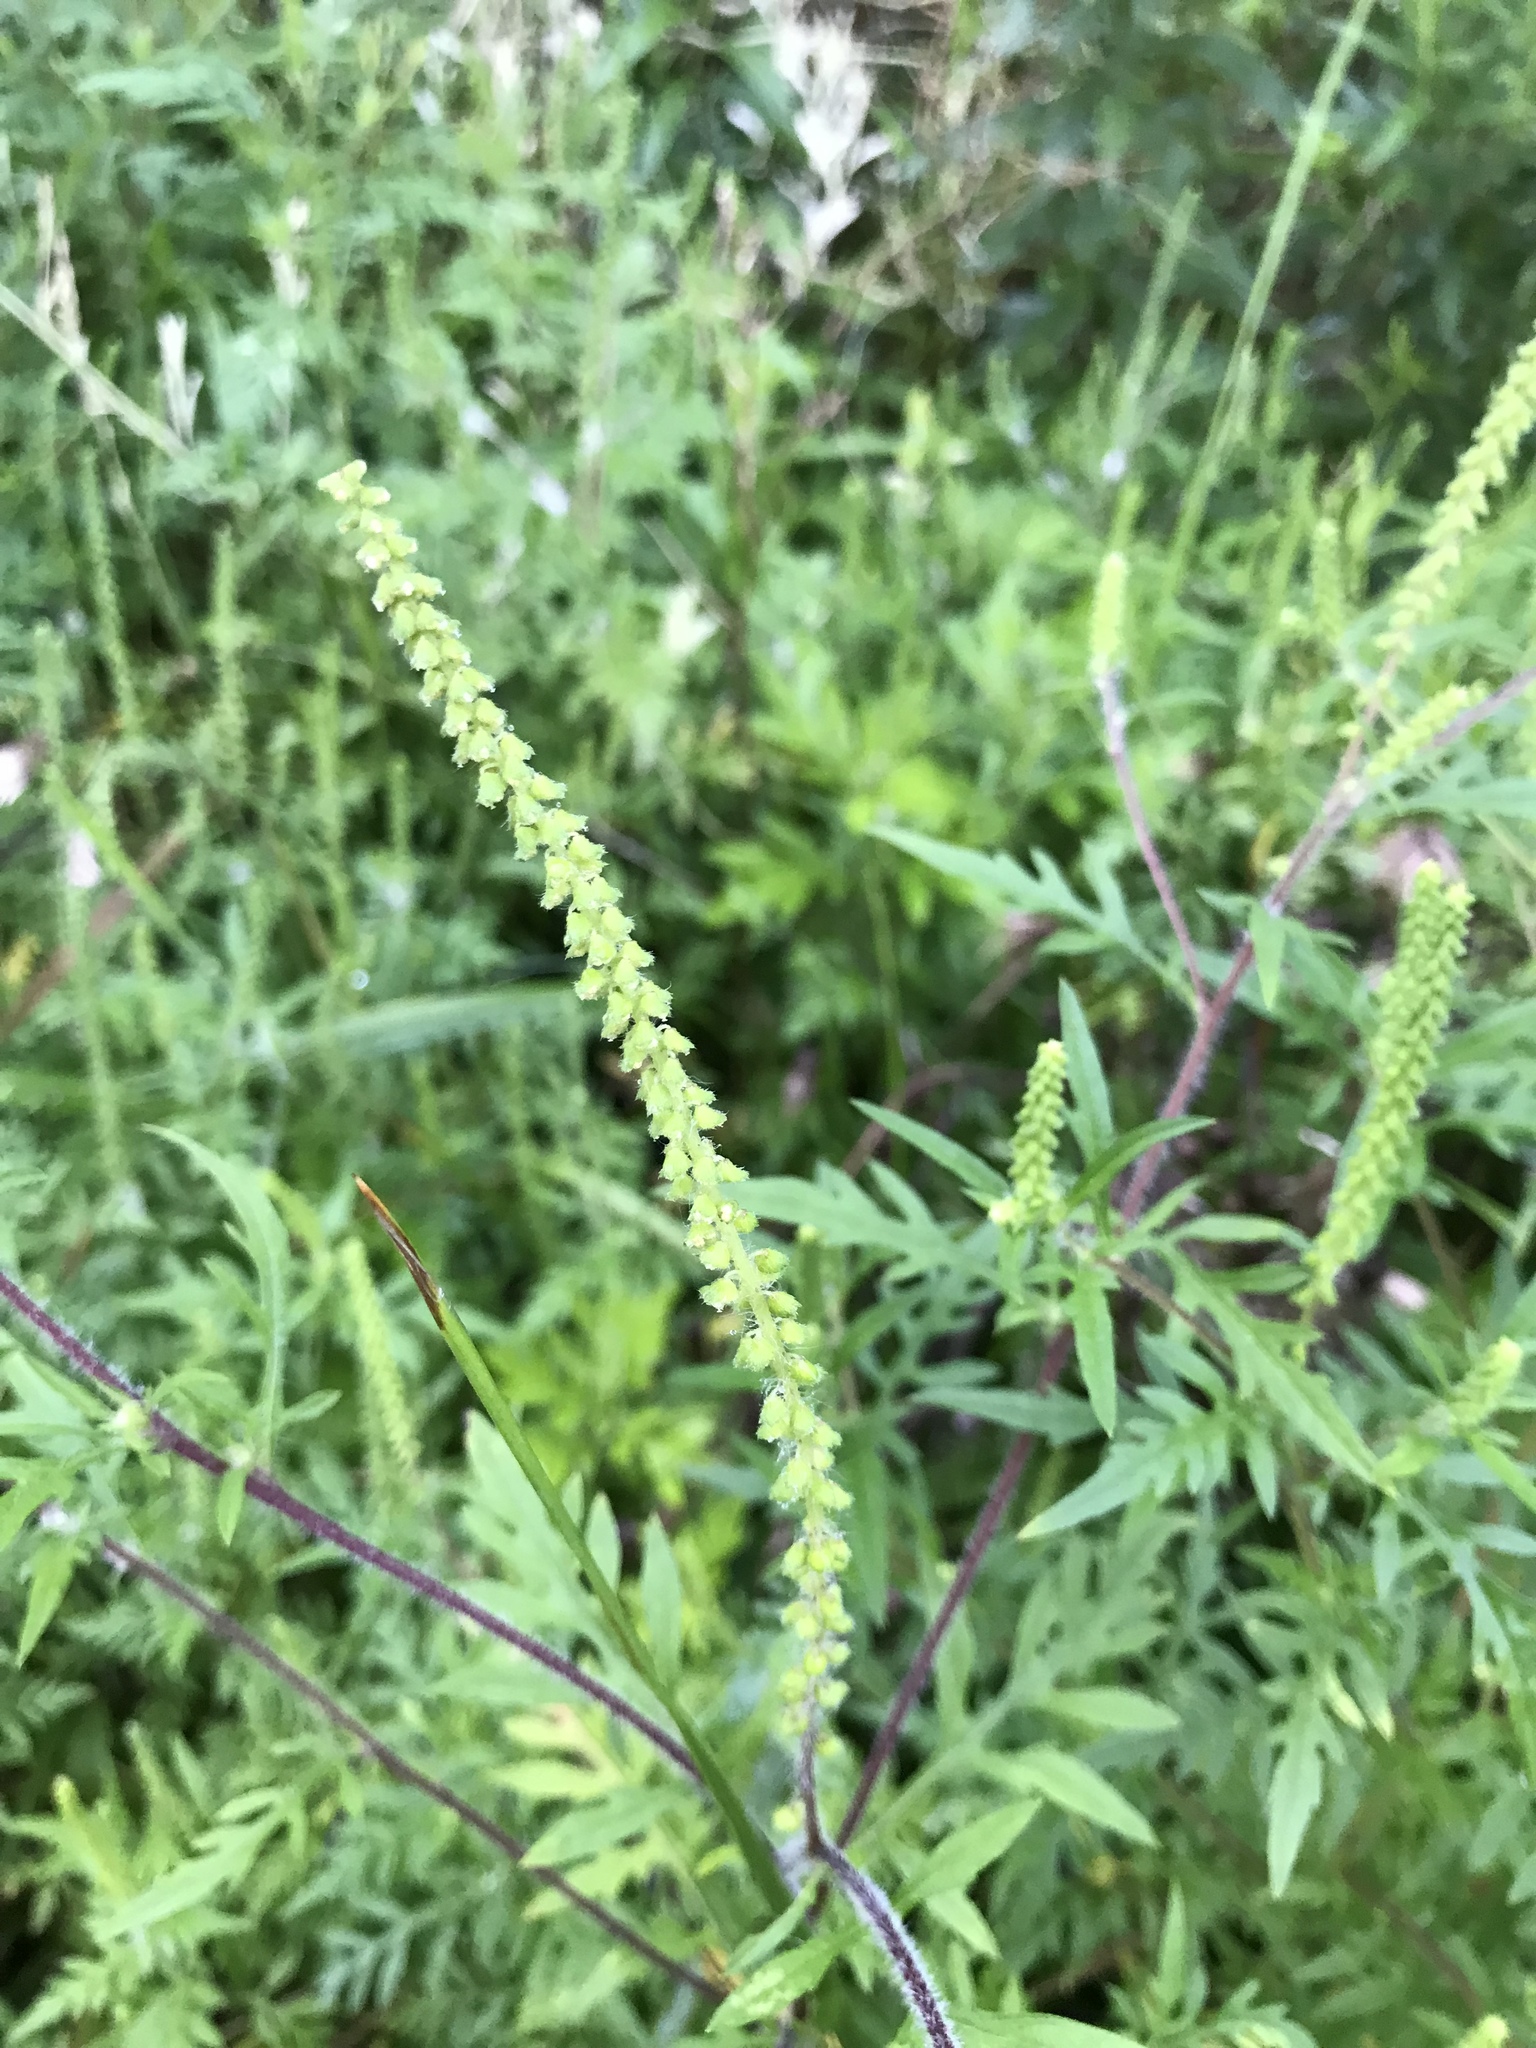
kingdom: Plantae
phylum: Tracheophyta
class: Magnoliopsida
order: Asterales
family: Asteraceae
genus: Ambrosia
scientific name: Ambrosia artemisiifolia
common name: Annual ragweed
